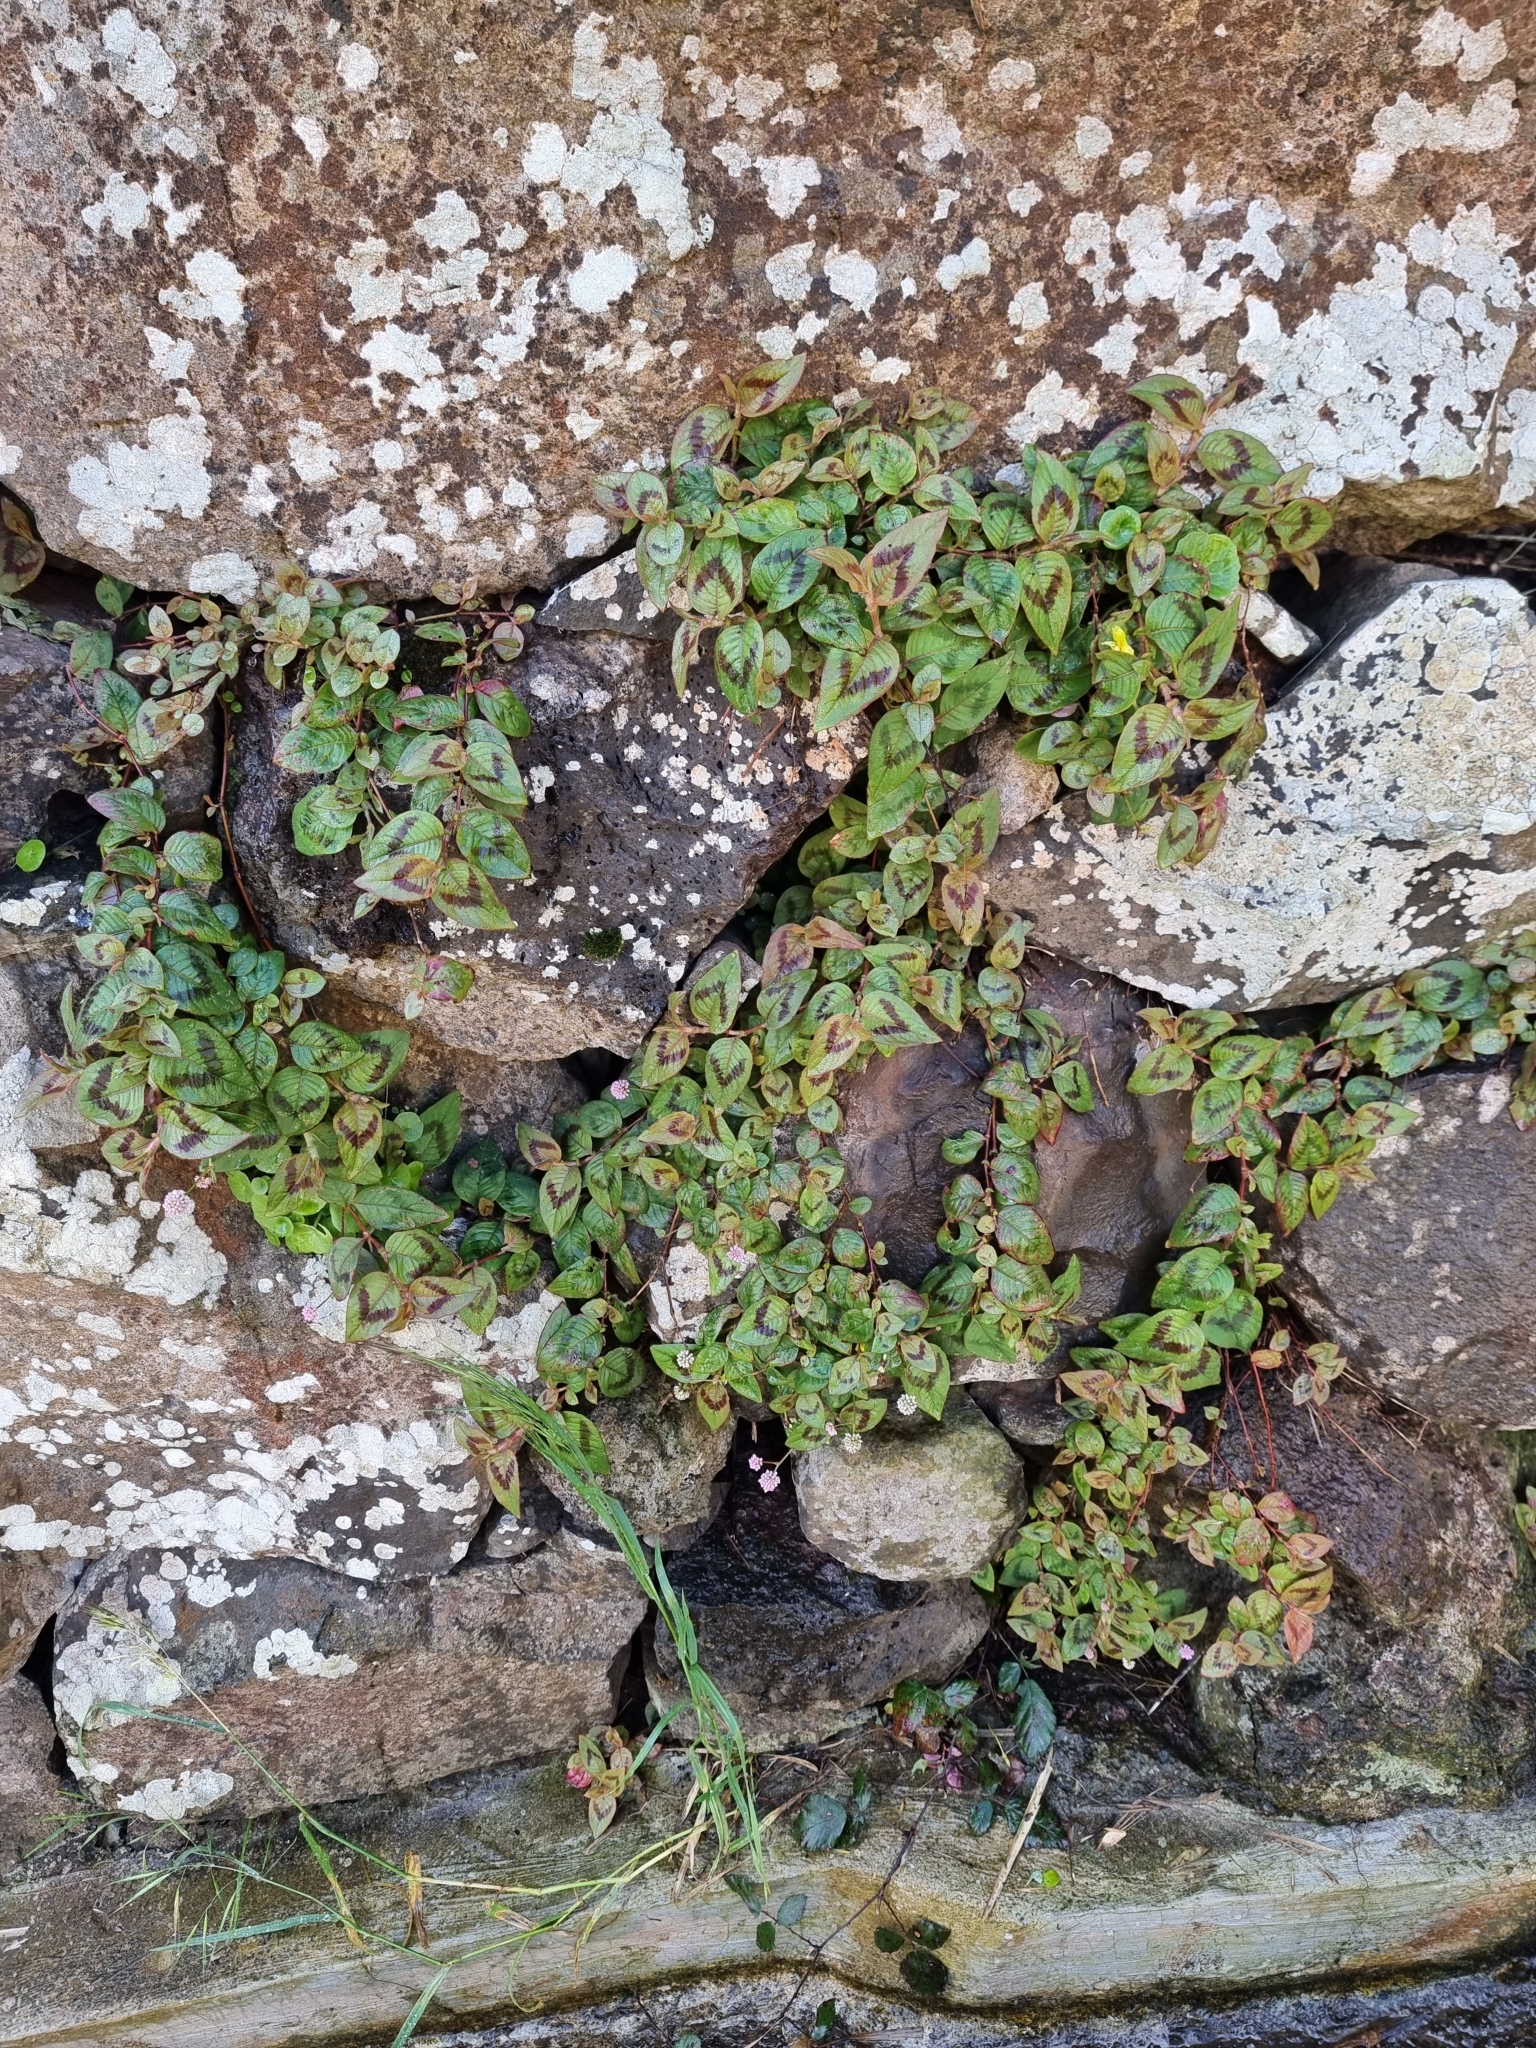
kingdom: Plantae
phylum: Tracheophyta
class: Magnoliopsida
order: Caryophyllales
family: Polygonaceae
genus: Persicaria
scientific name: Persicaria capitata
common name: Pinkhead smartweed
